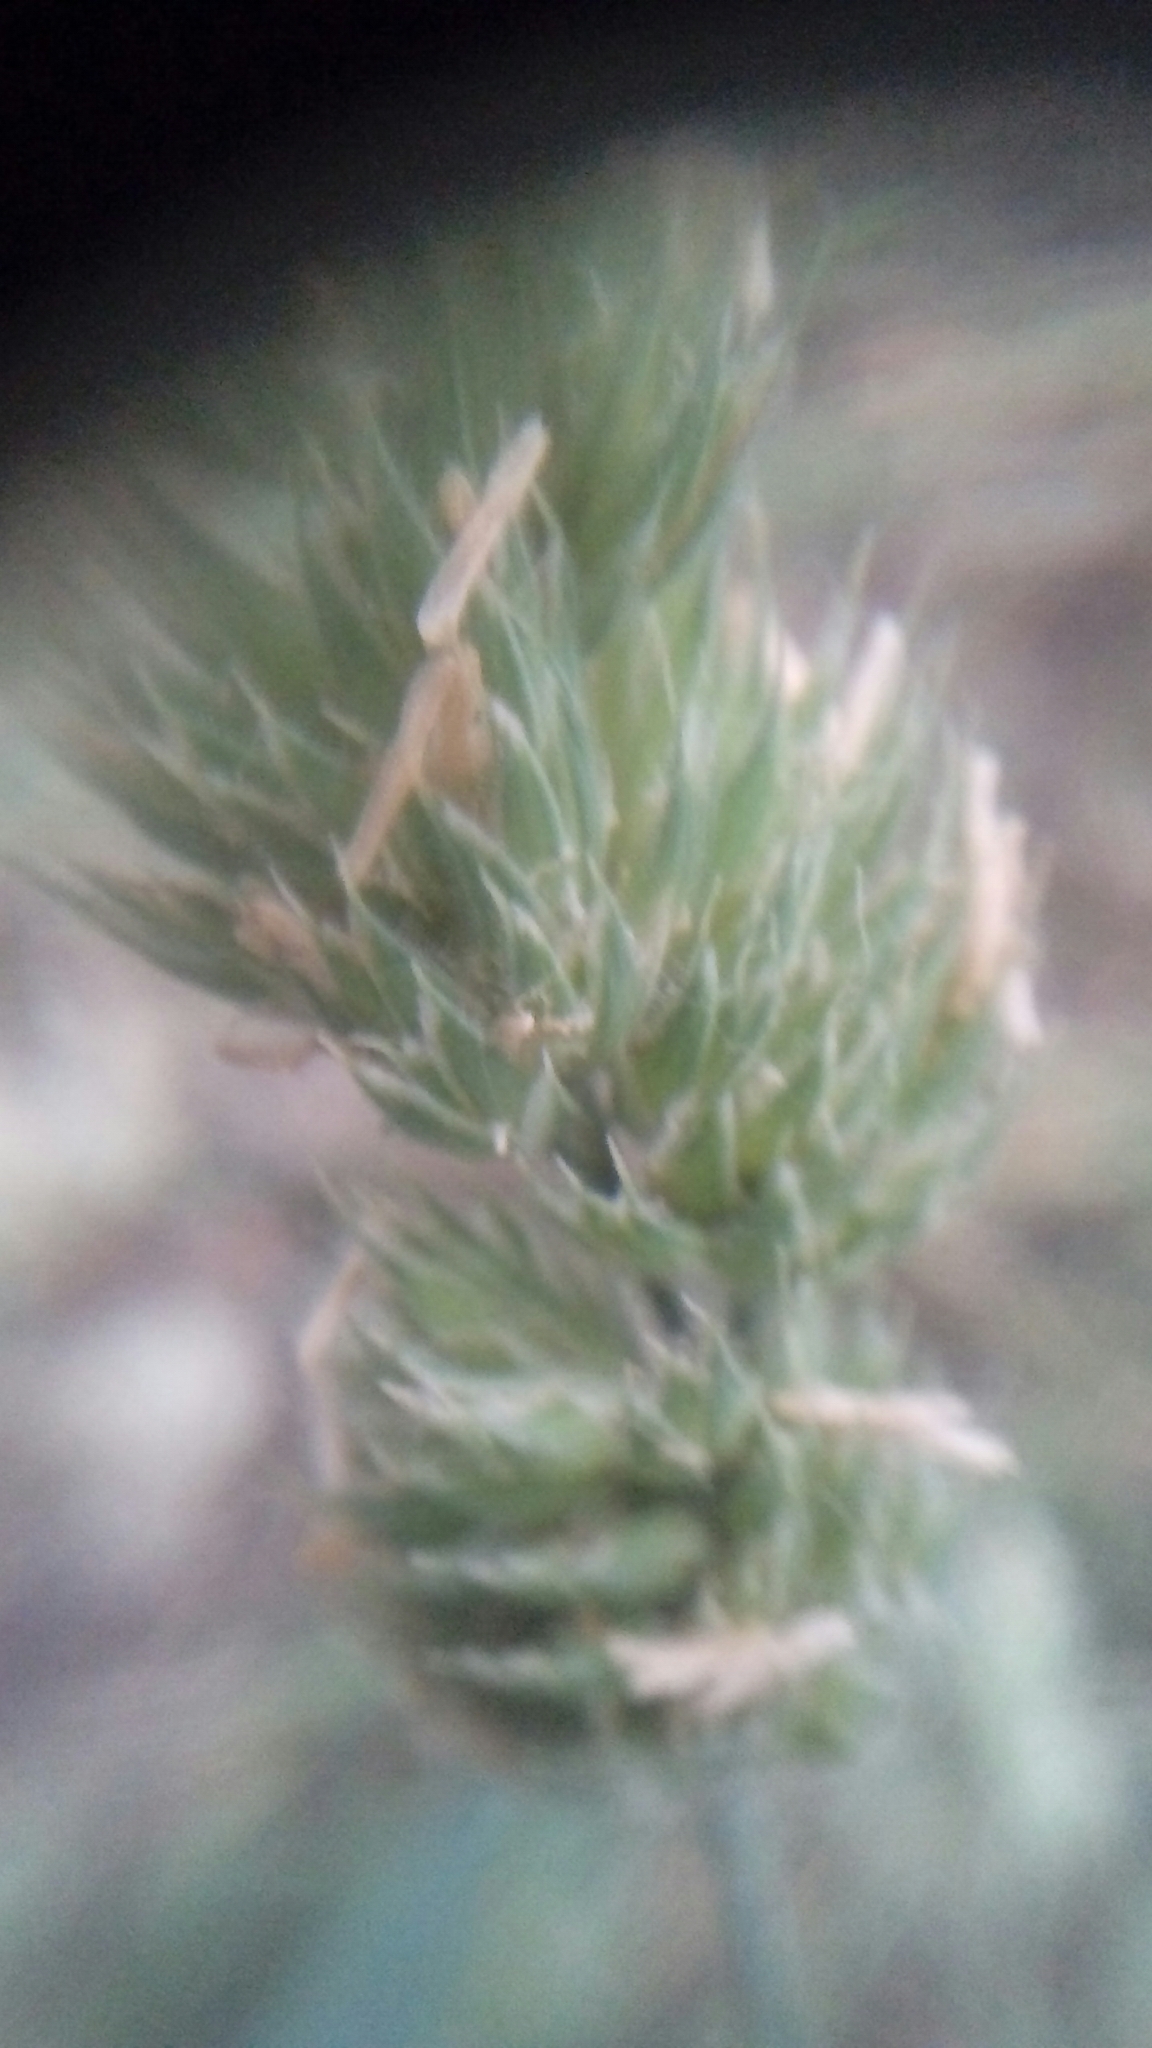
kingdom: Plantae
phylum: Tracheophyta
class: Liliopsida
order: Poales
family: Poaceae
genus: Dactylis
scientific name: Dactylis glomerata
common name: Orchardgrass
